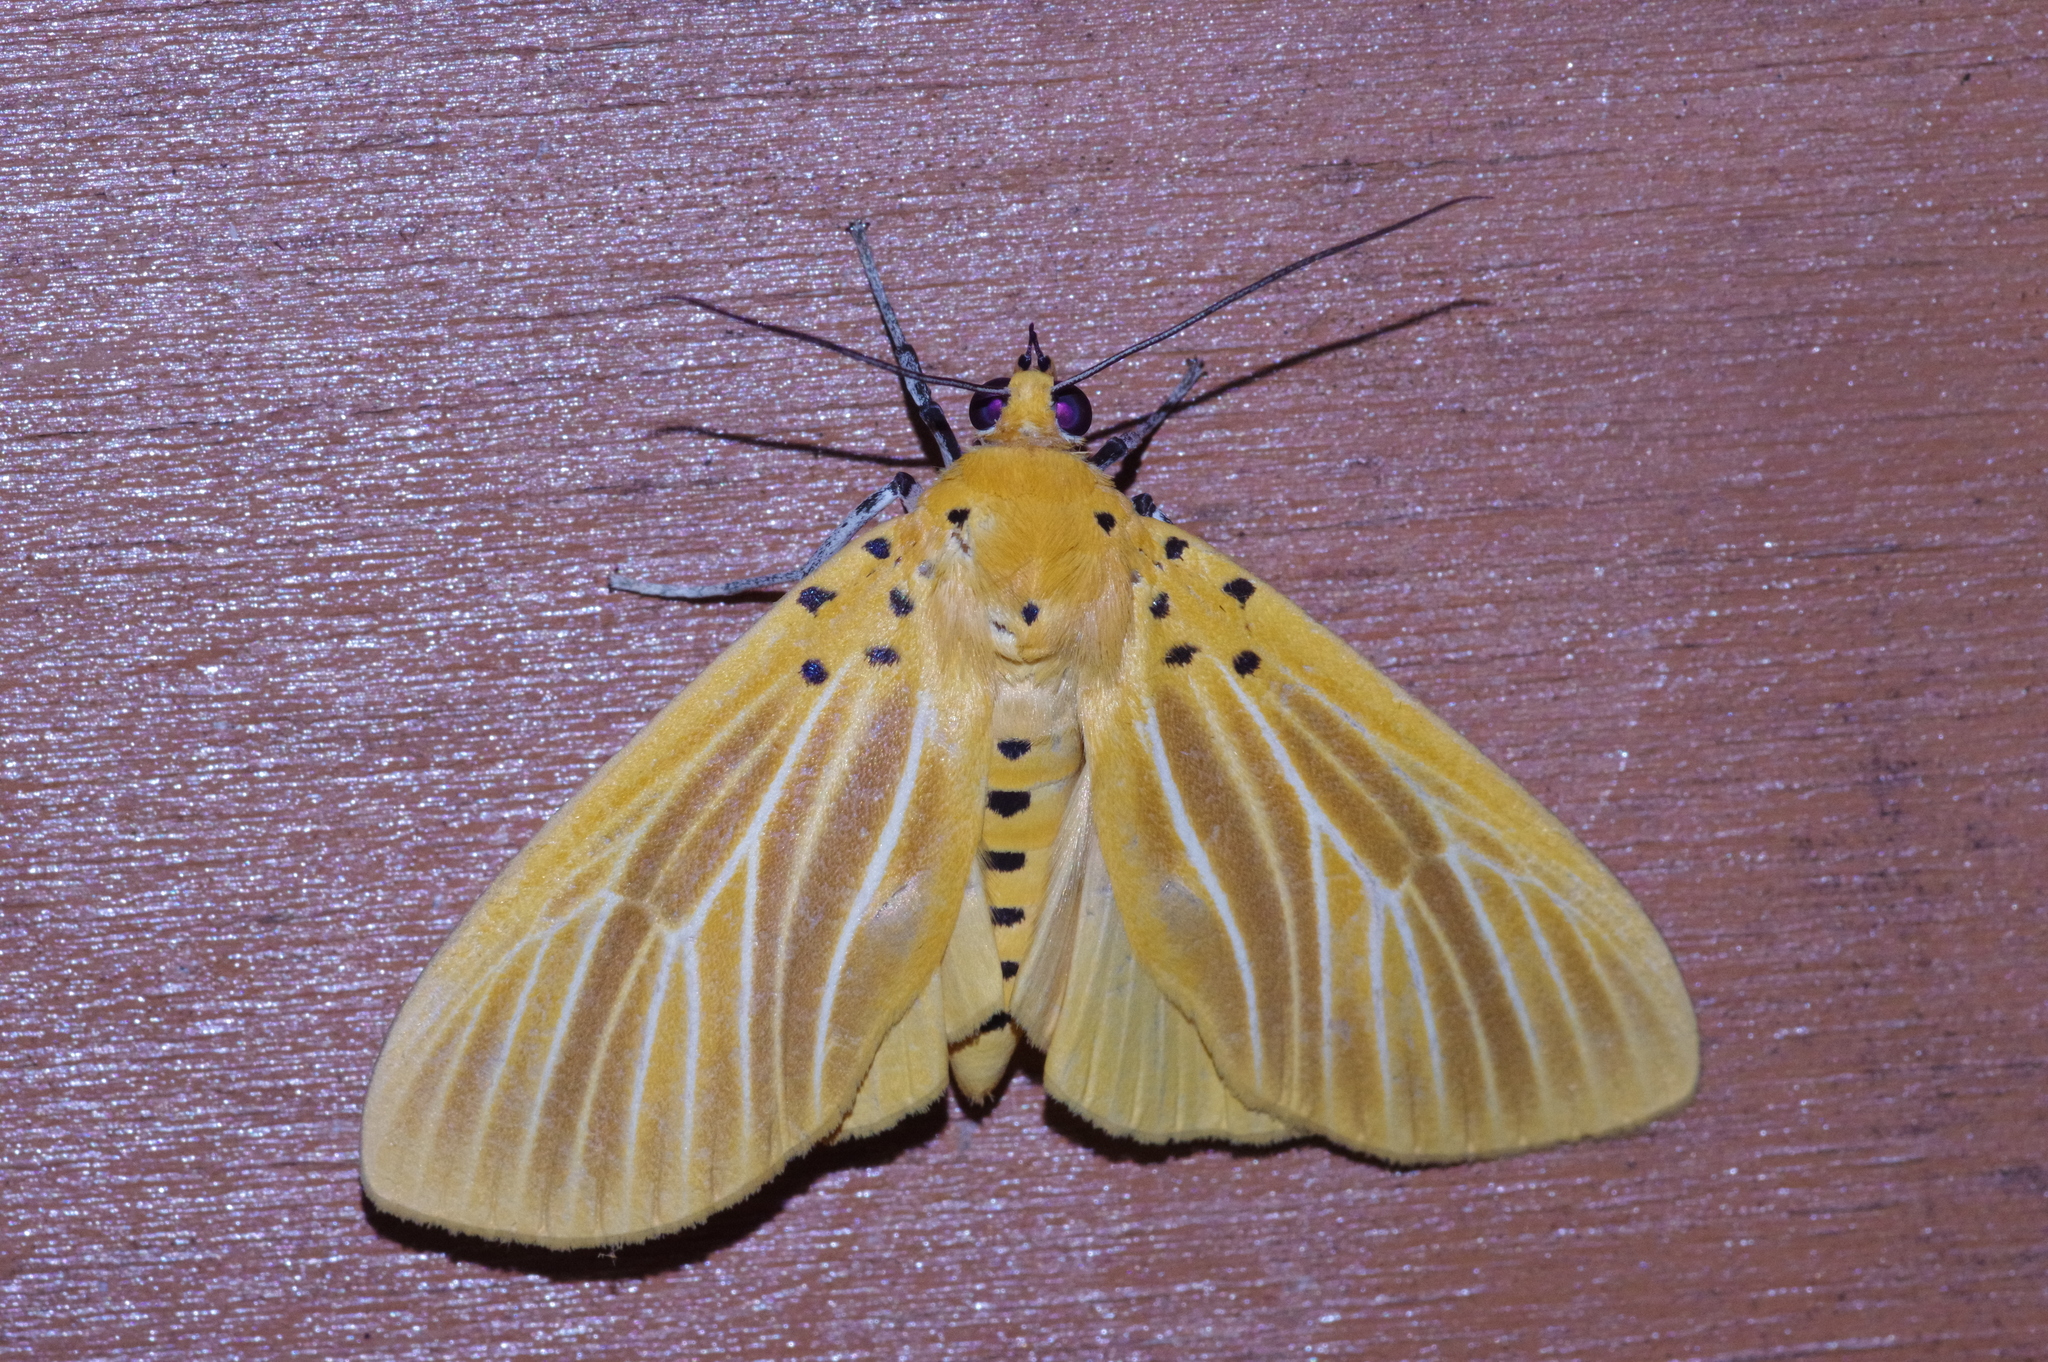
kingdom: Animalia
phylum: Arthropoda
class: Insecta
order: Lepidoptera
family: Erebidae
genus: Asota
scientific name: Asota egens
